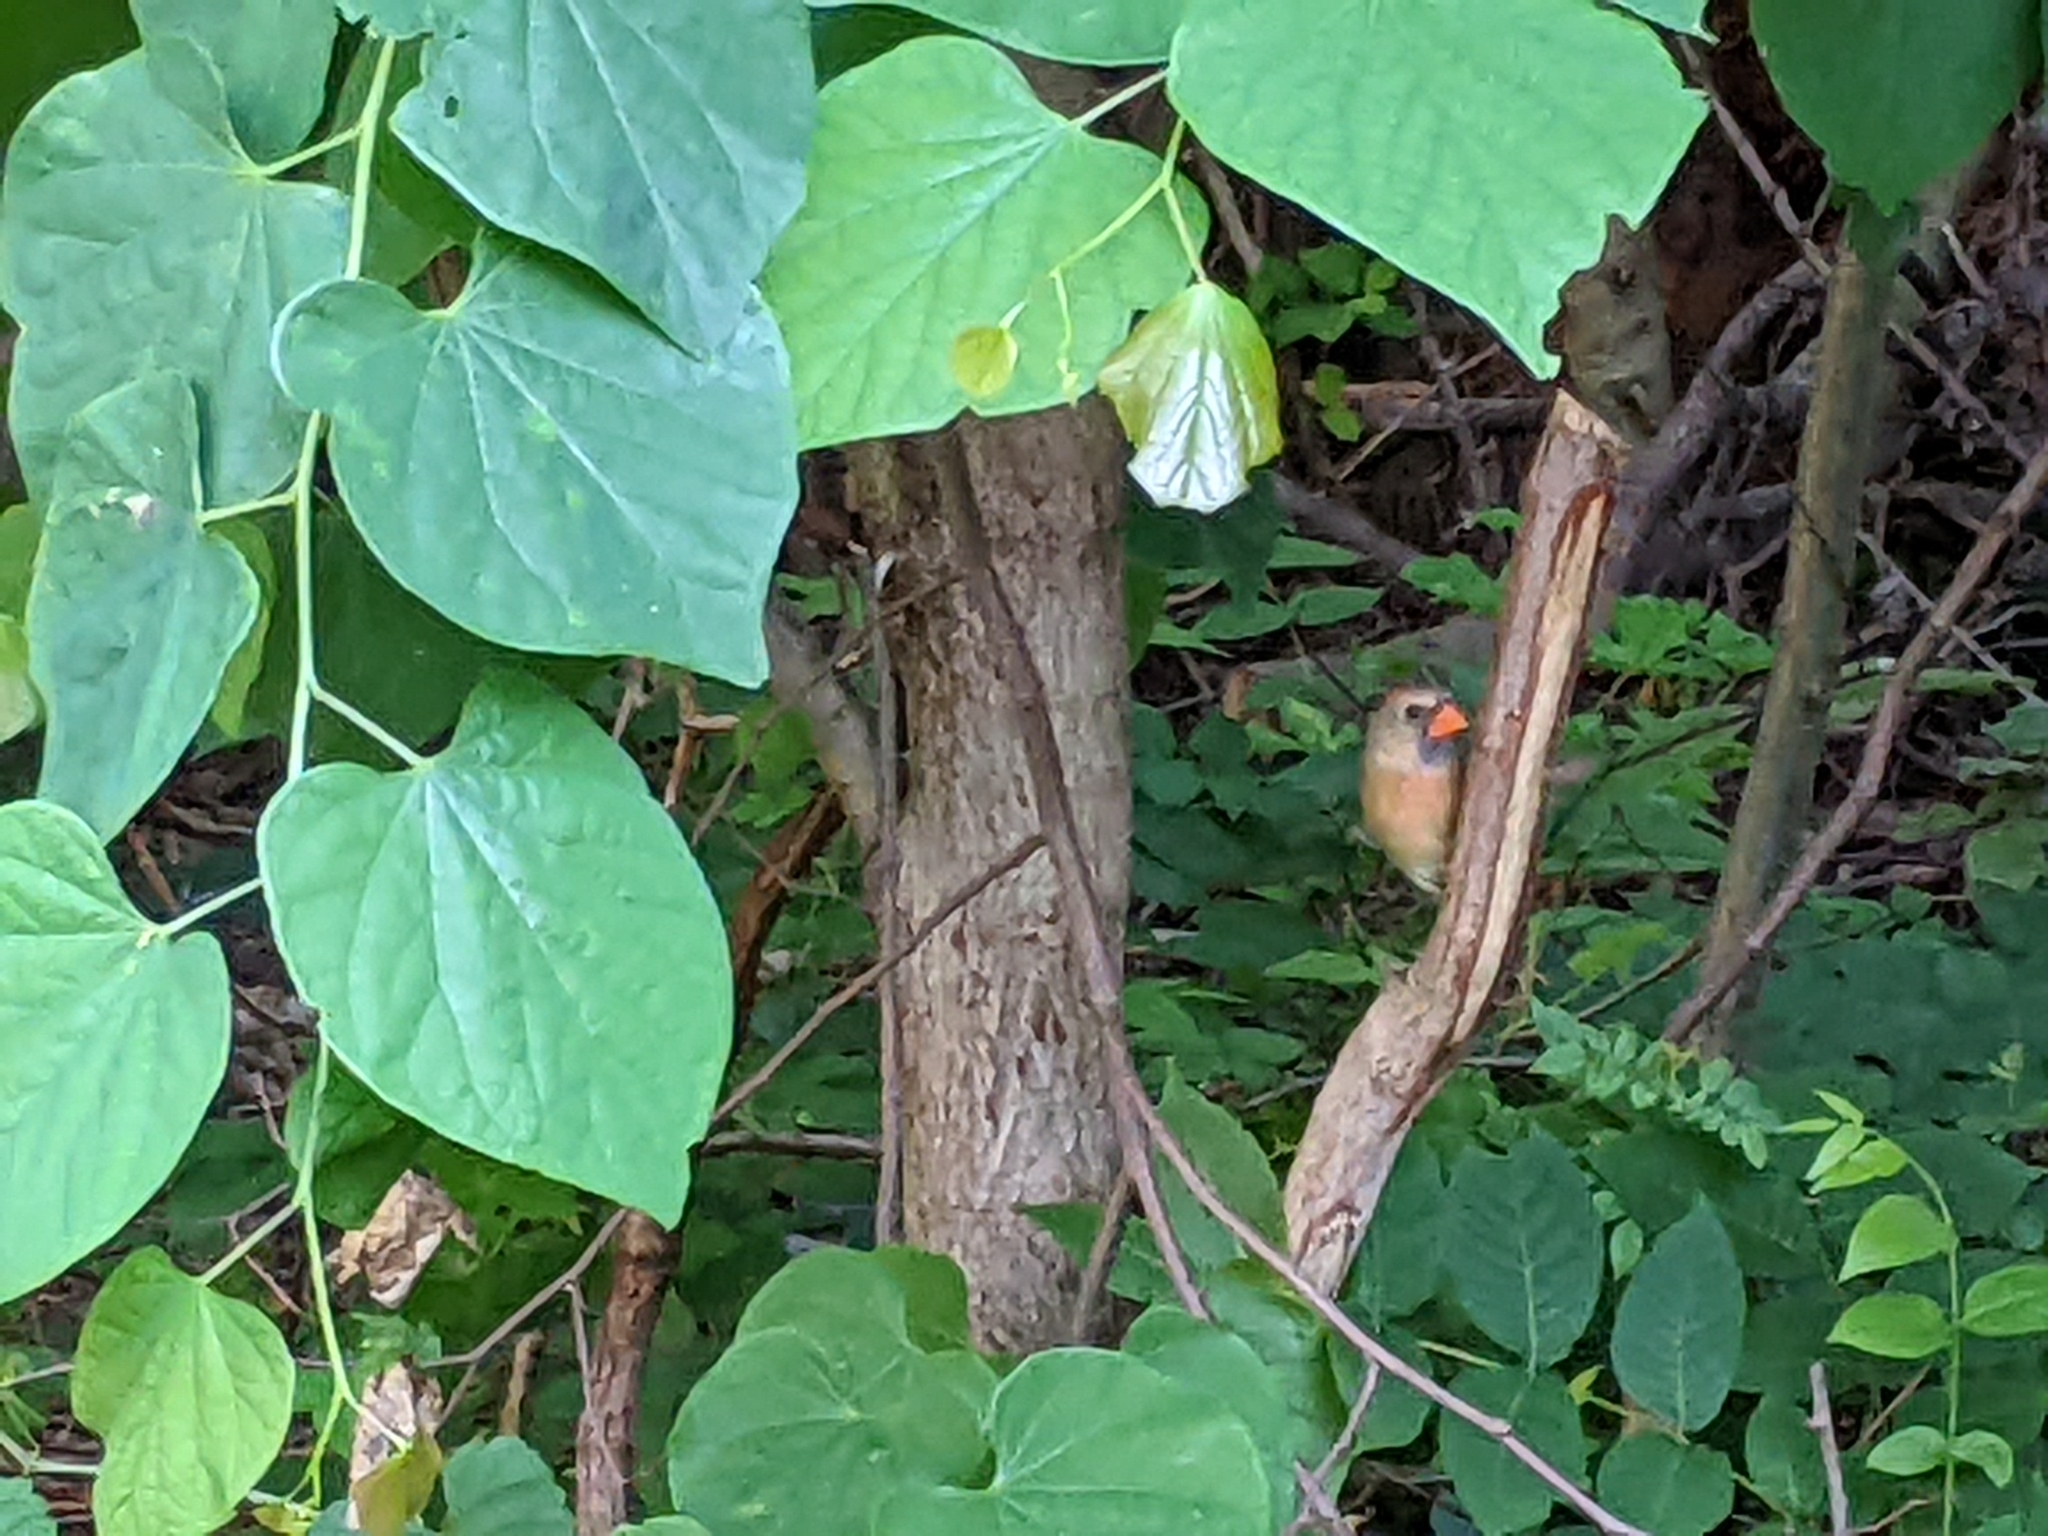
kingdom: Animalia
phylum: Chordata
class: Aves
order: Passeriformes
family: Cardinalidae
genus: Cardinalis
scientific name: Cardinalis cardinalis
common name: Northern cardinal
